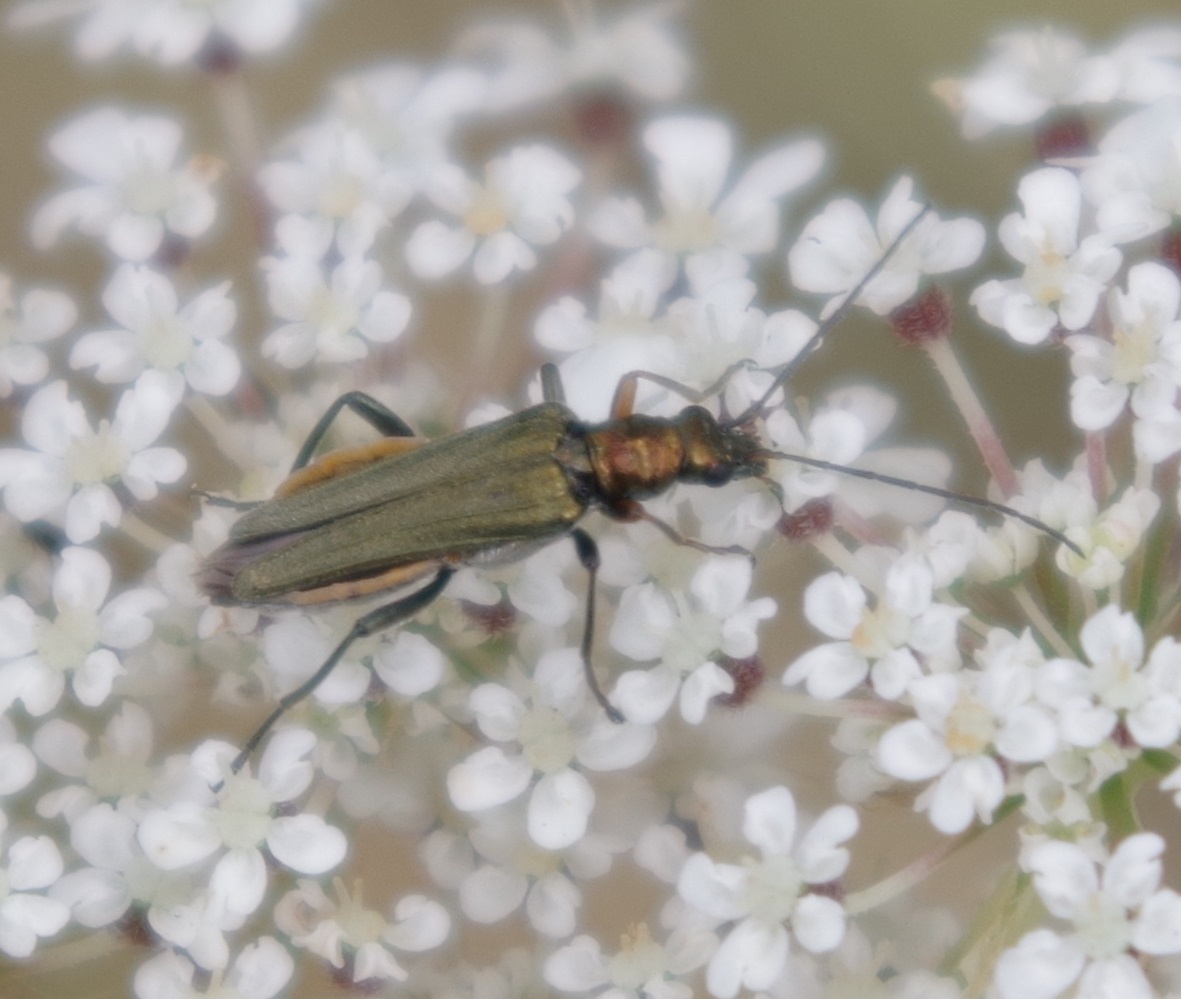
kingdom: Animalia
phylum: Arthropoda
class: Insecta
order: Coleoptera
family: Oedemeridae
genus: Oedemera
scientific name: Oedemera flavipes
